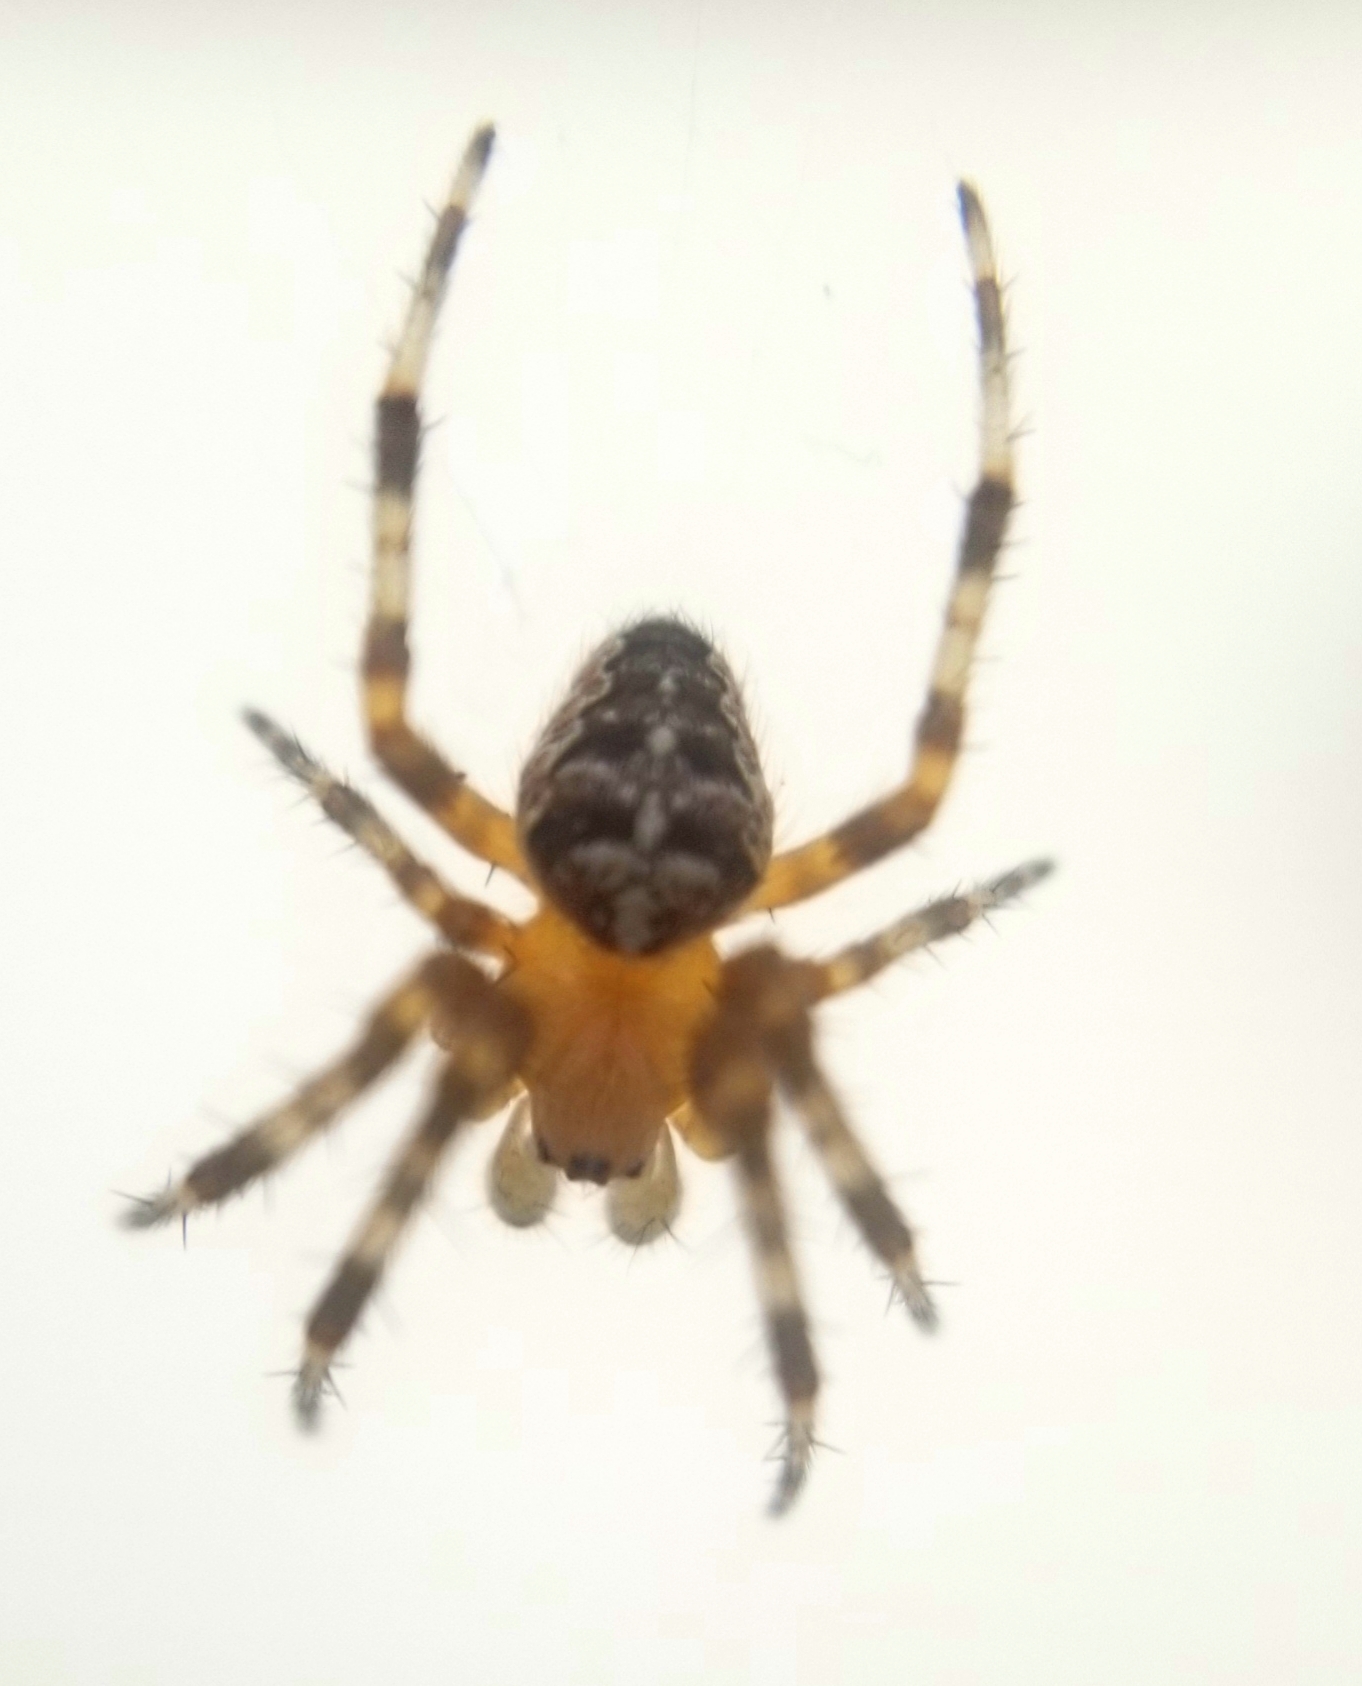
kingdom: Animalia
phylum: Arthropoda
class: Arachnida
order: Araneae
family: Araneidae
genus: Araneus
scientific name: Araneus diadematus
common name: Cross orbweaver
